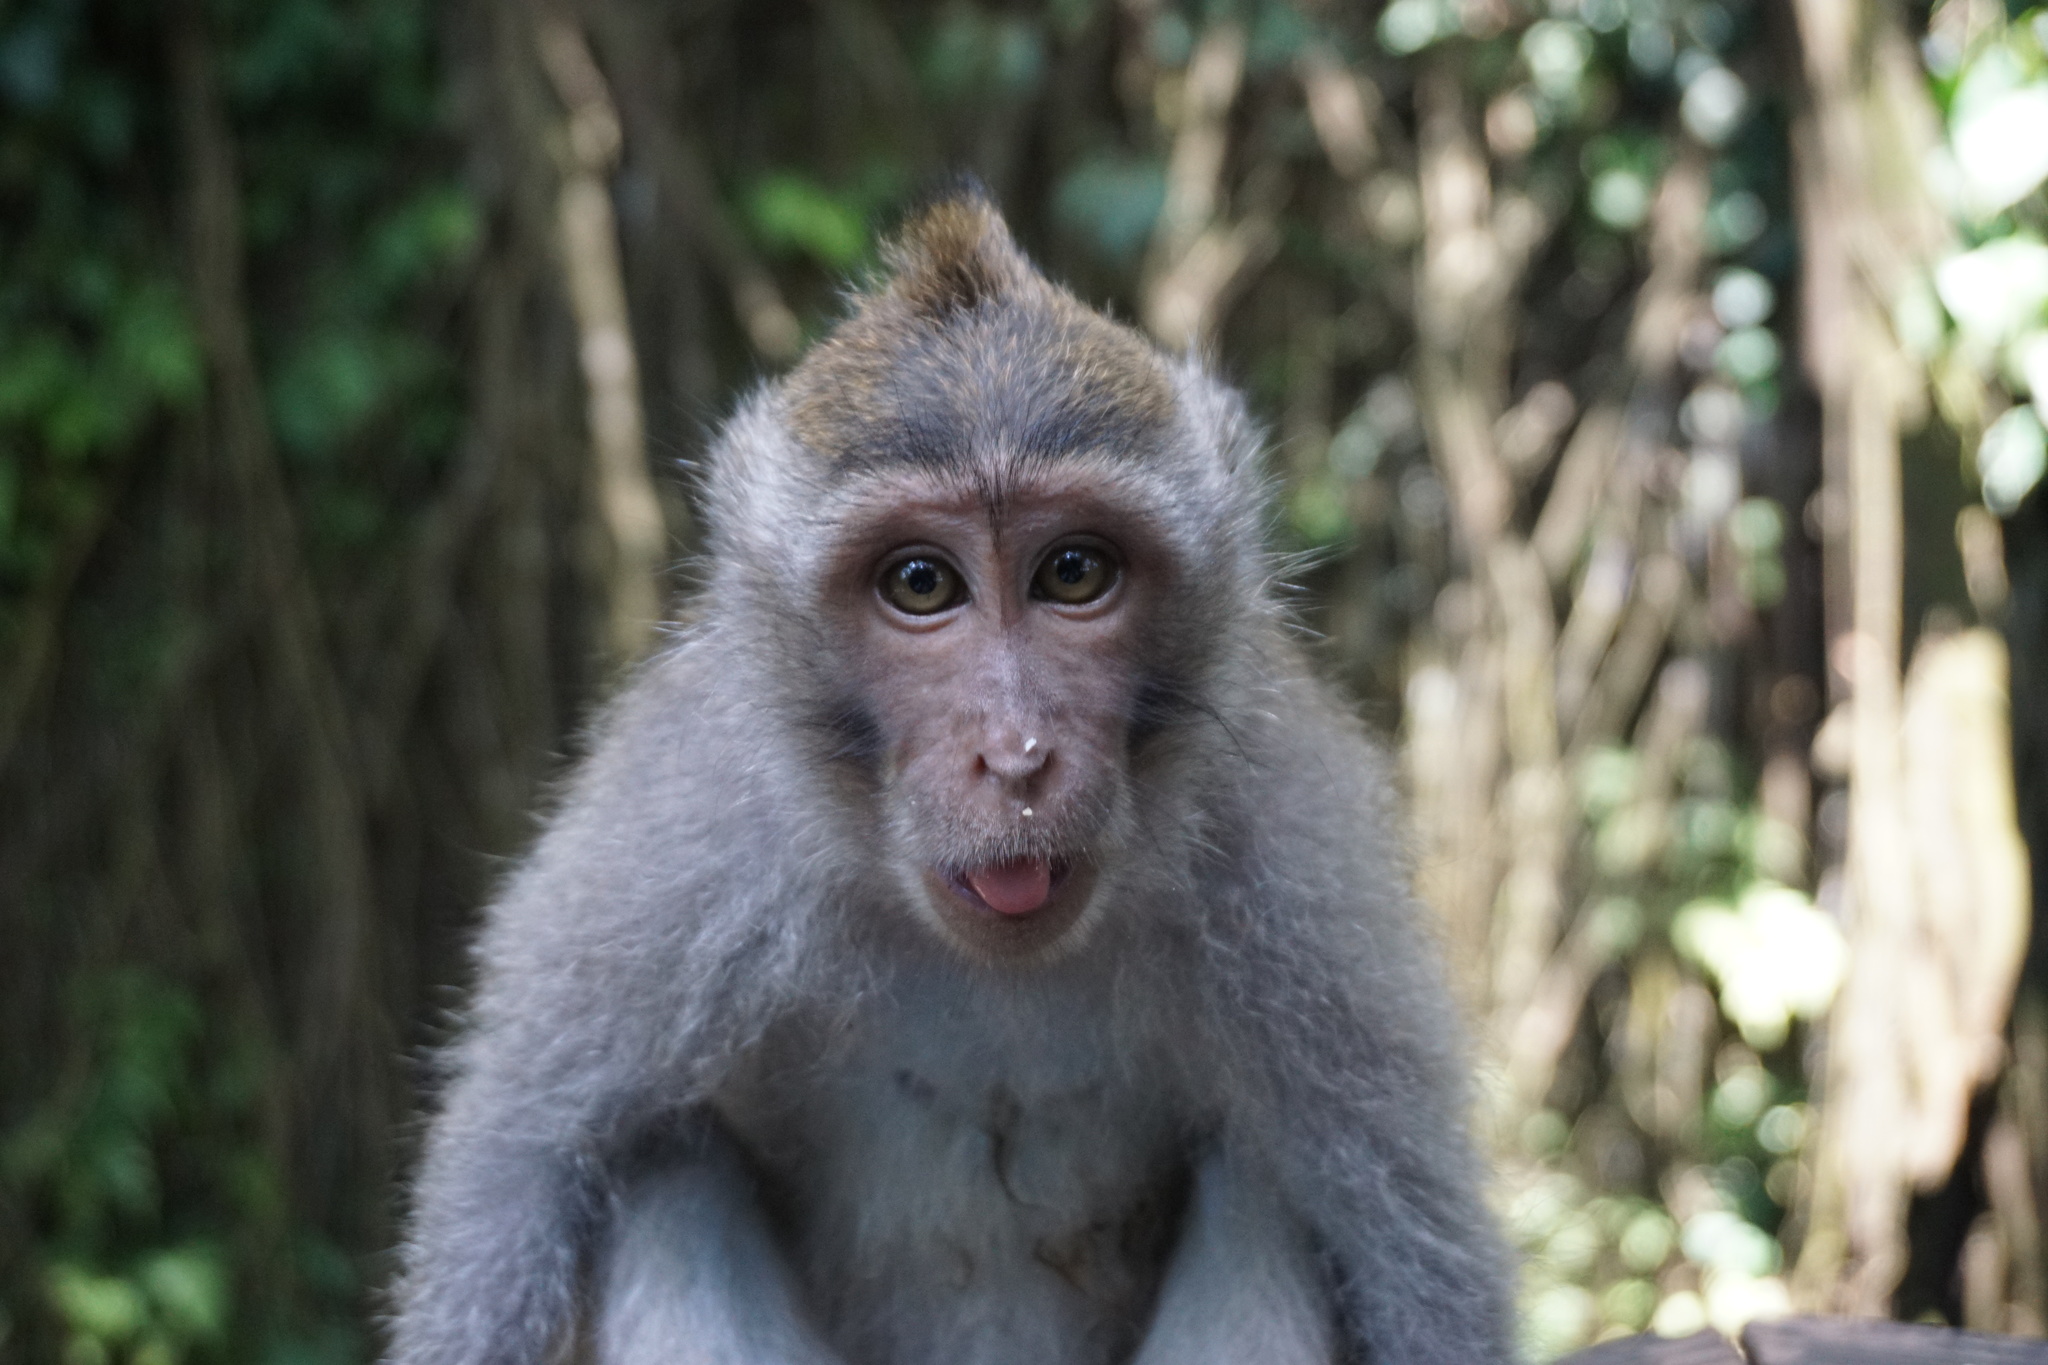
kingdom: Animalia
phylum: Chordata
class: Mammalia
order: Primates
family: Cercopithecidae
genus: Macaca
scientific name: Macaca fascicularis
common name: Crab-eating macaque
